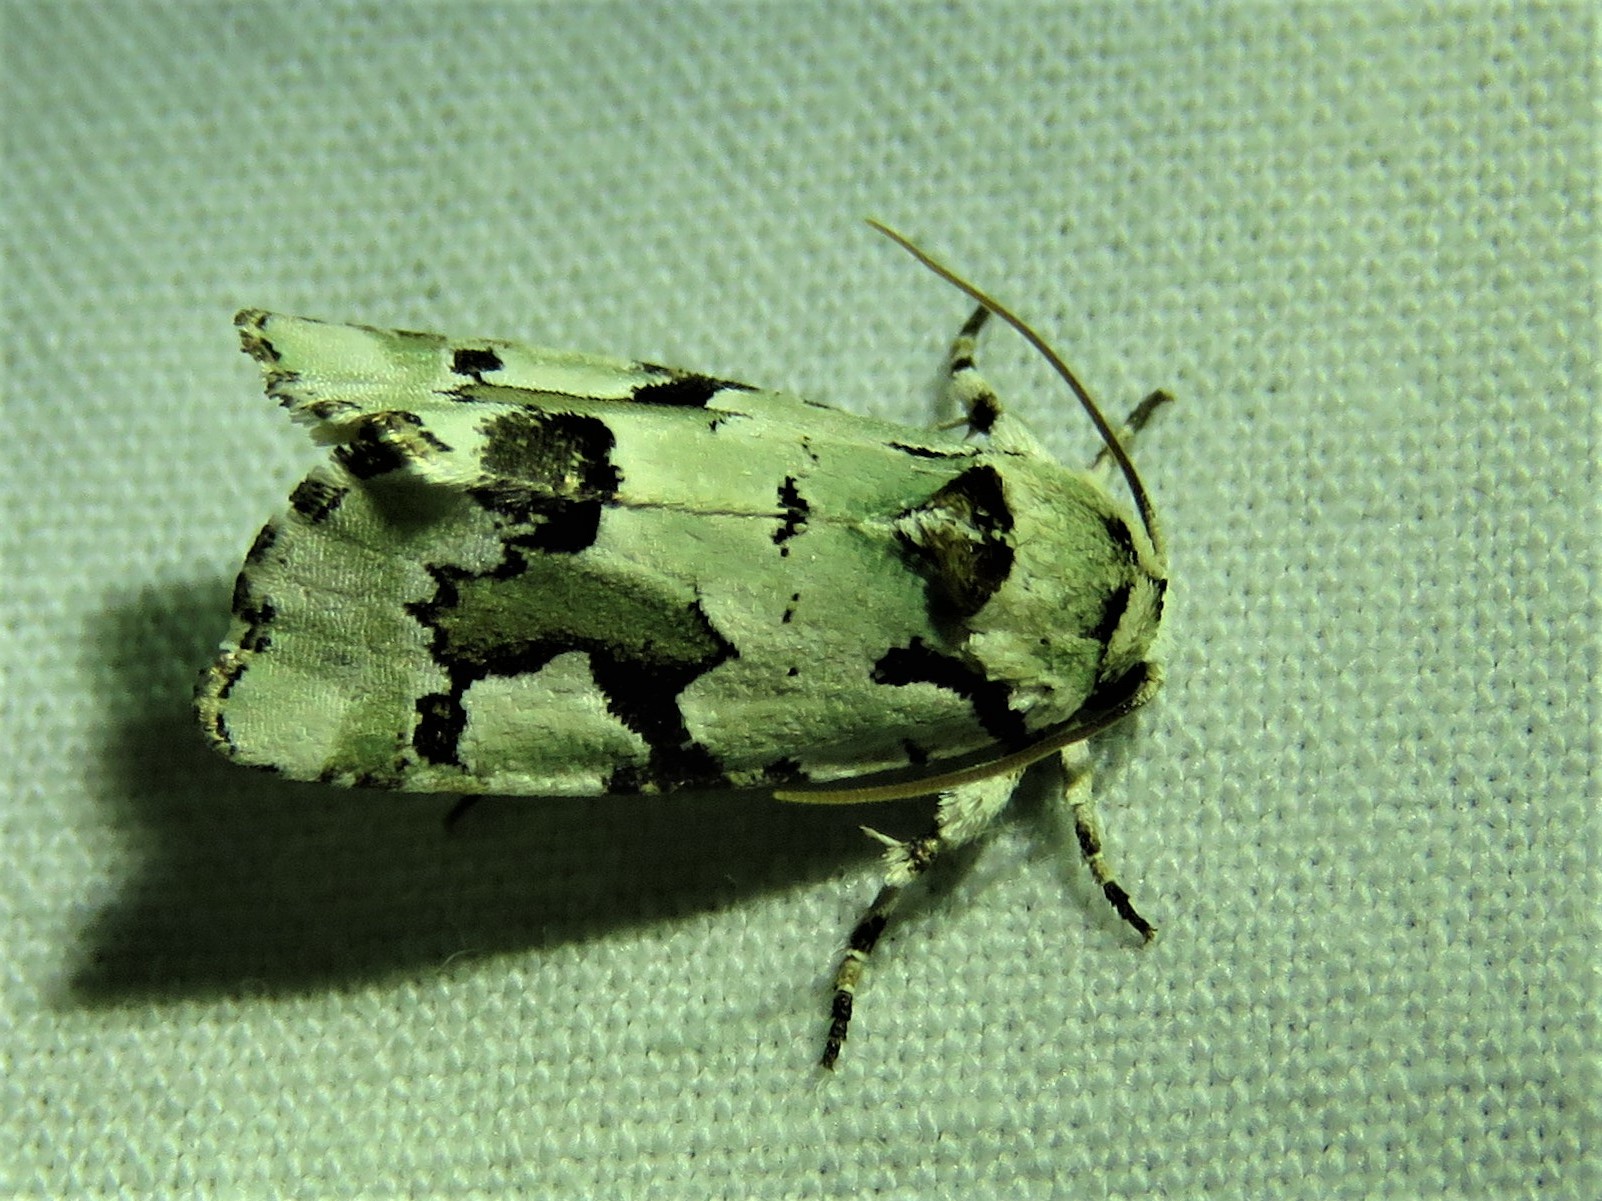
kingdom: Animalia
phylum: Arthropoda
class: Insecta
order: Lepidoptera
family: Noctuidae
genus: Emarginea
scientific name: Emarginea percara
